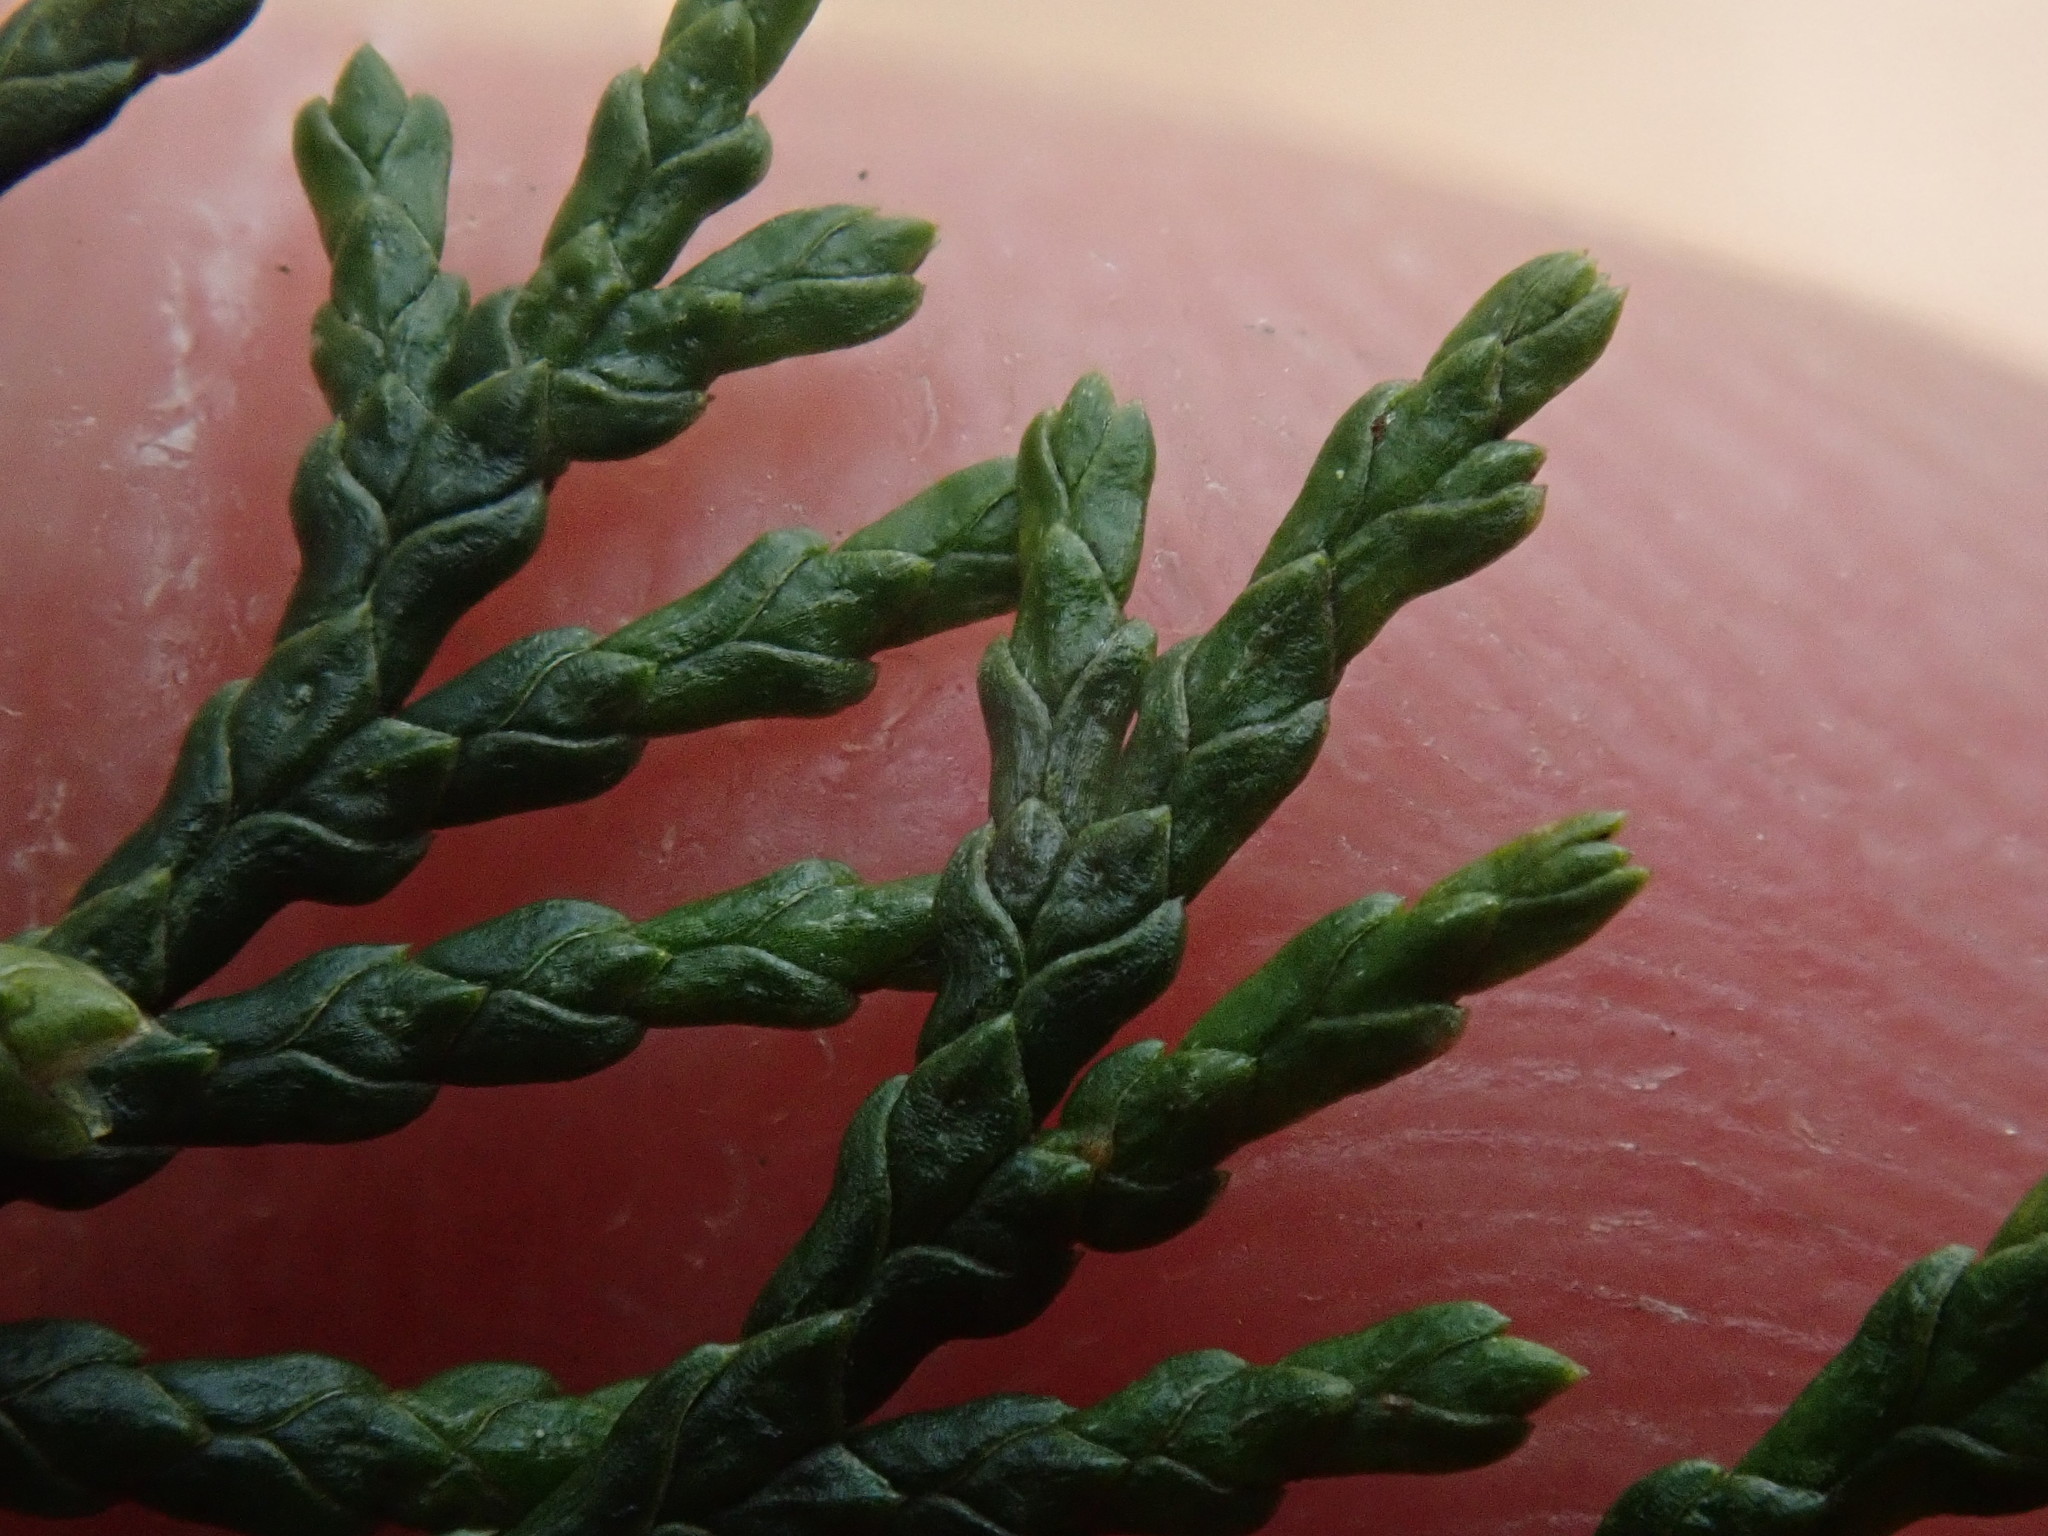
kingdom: Plantae
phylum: Tracheophyta
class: Pinopsida
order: Pinales
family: Cupressaceae
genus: Chamaecyparis
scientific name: Chamaecyparis thyoides
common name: Atlantic white cedar
